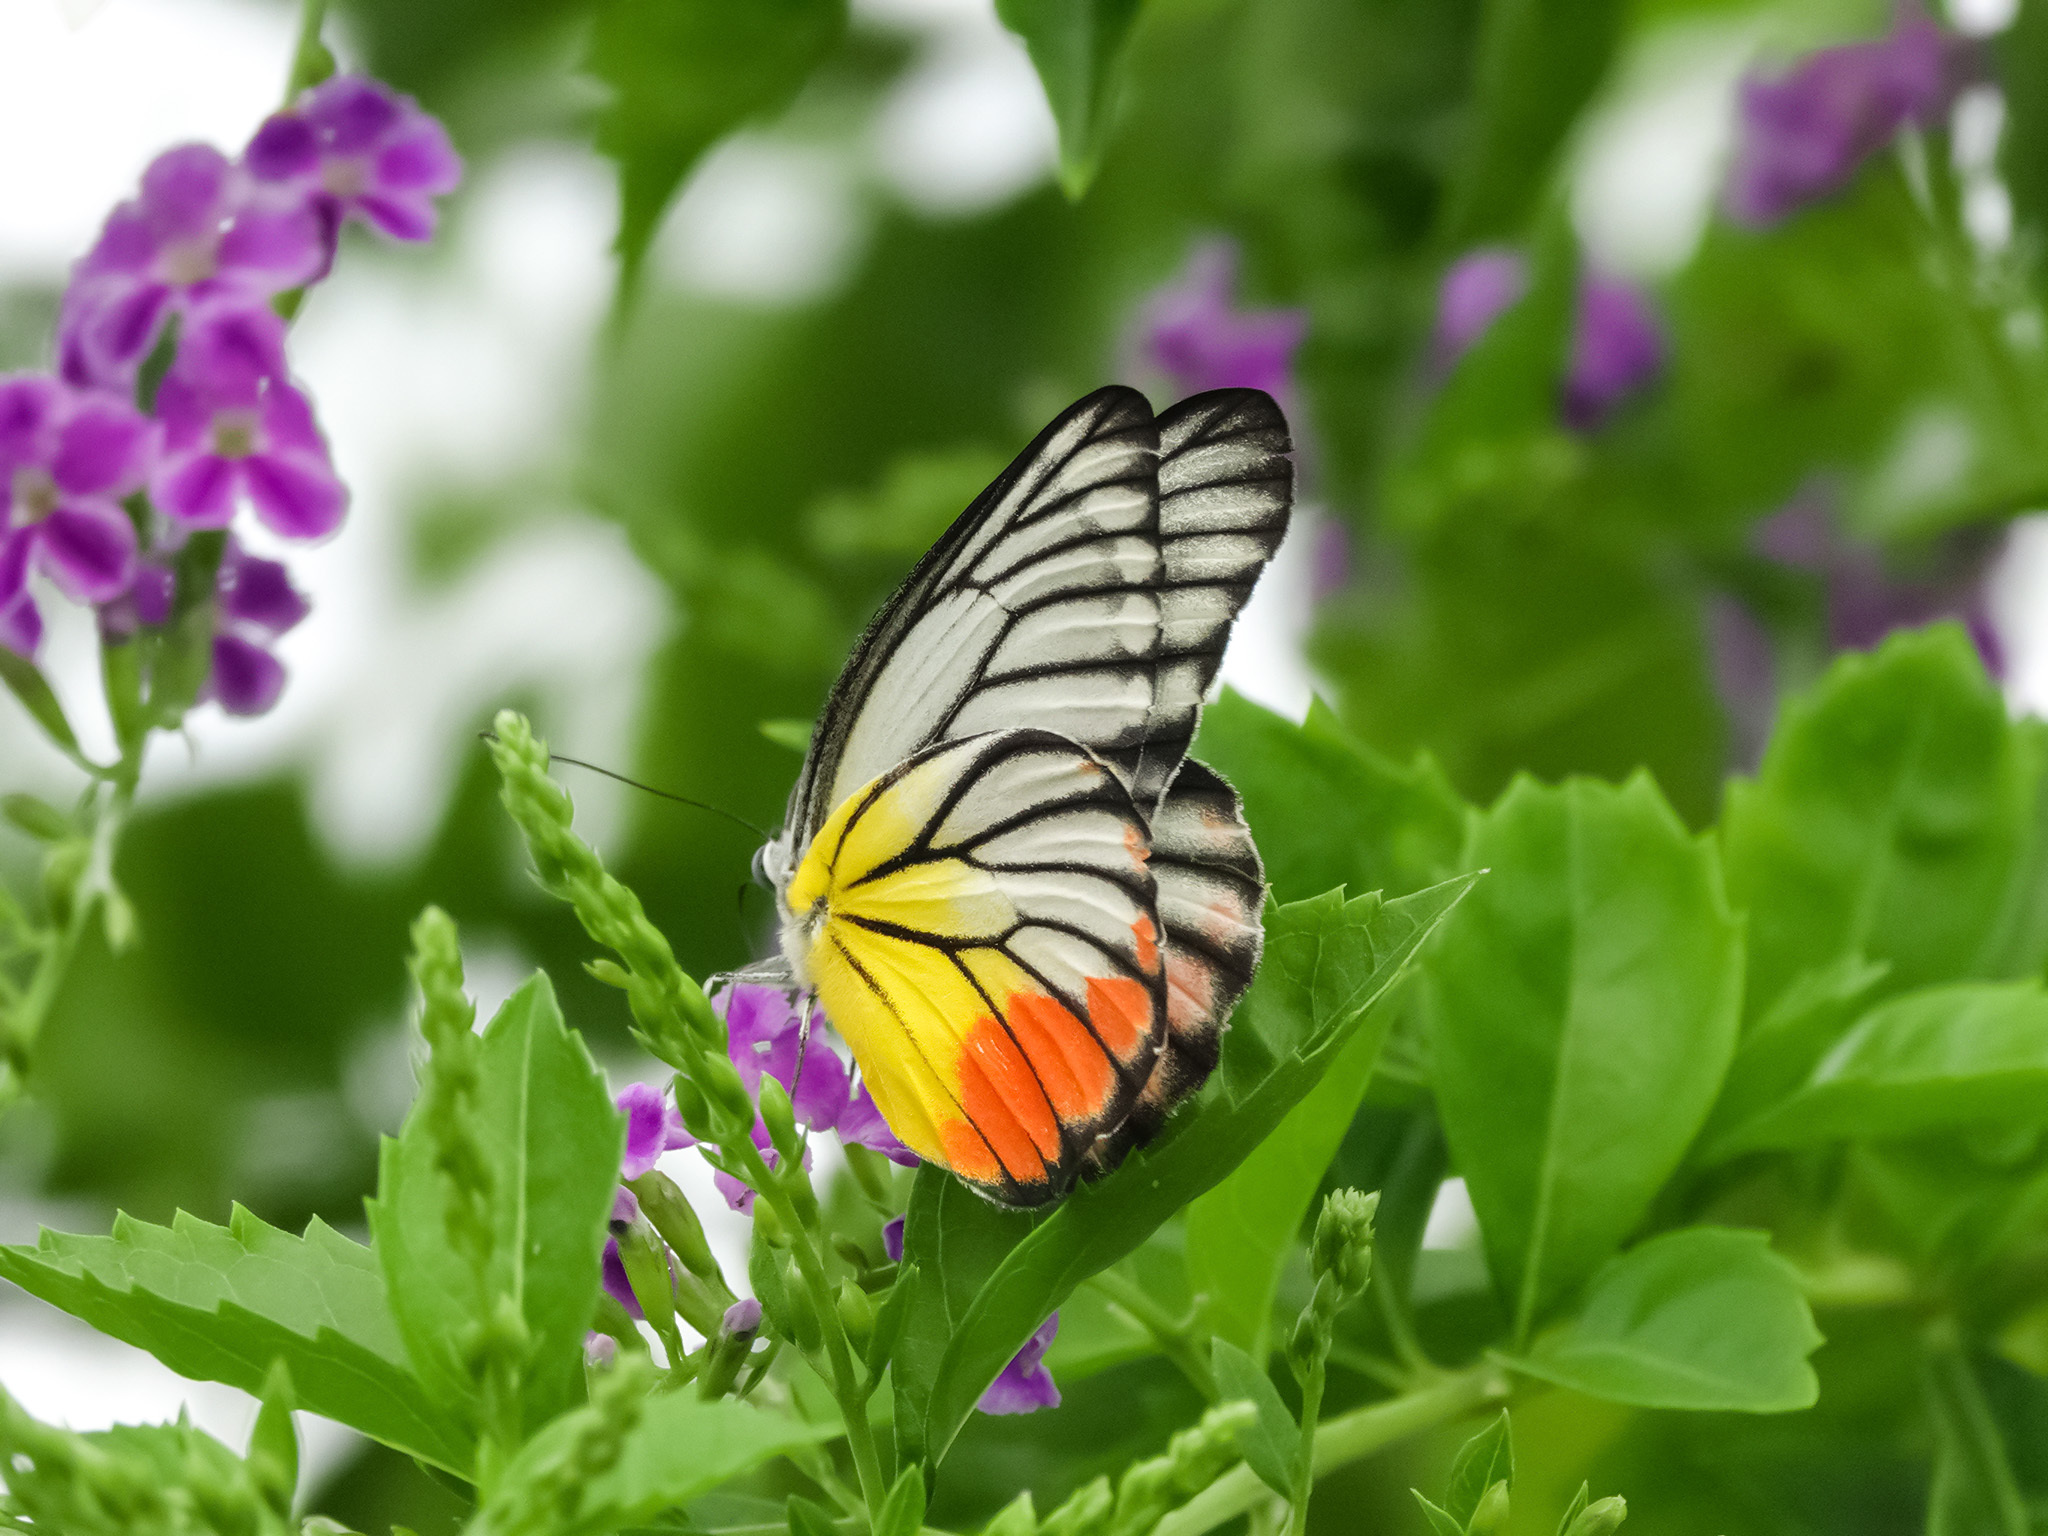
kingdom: Animalia
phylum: Arthropoda
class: Insecta
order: Lepidoptera
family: Pieridae
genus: Delias
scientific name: Delias hyparete
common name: Painted jezebel
